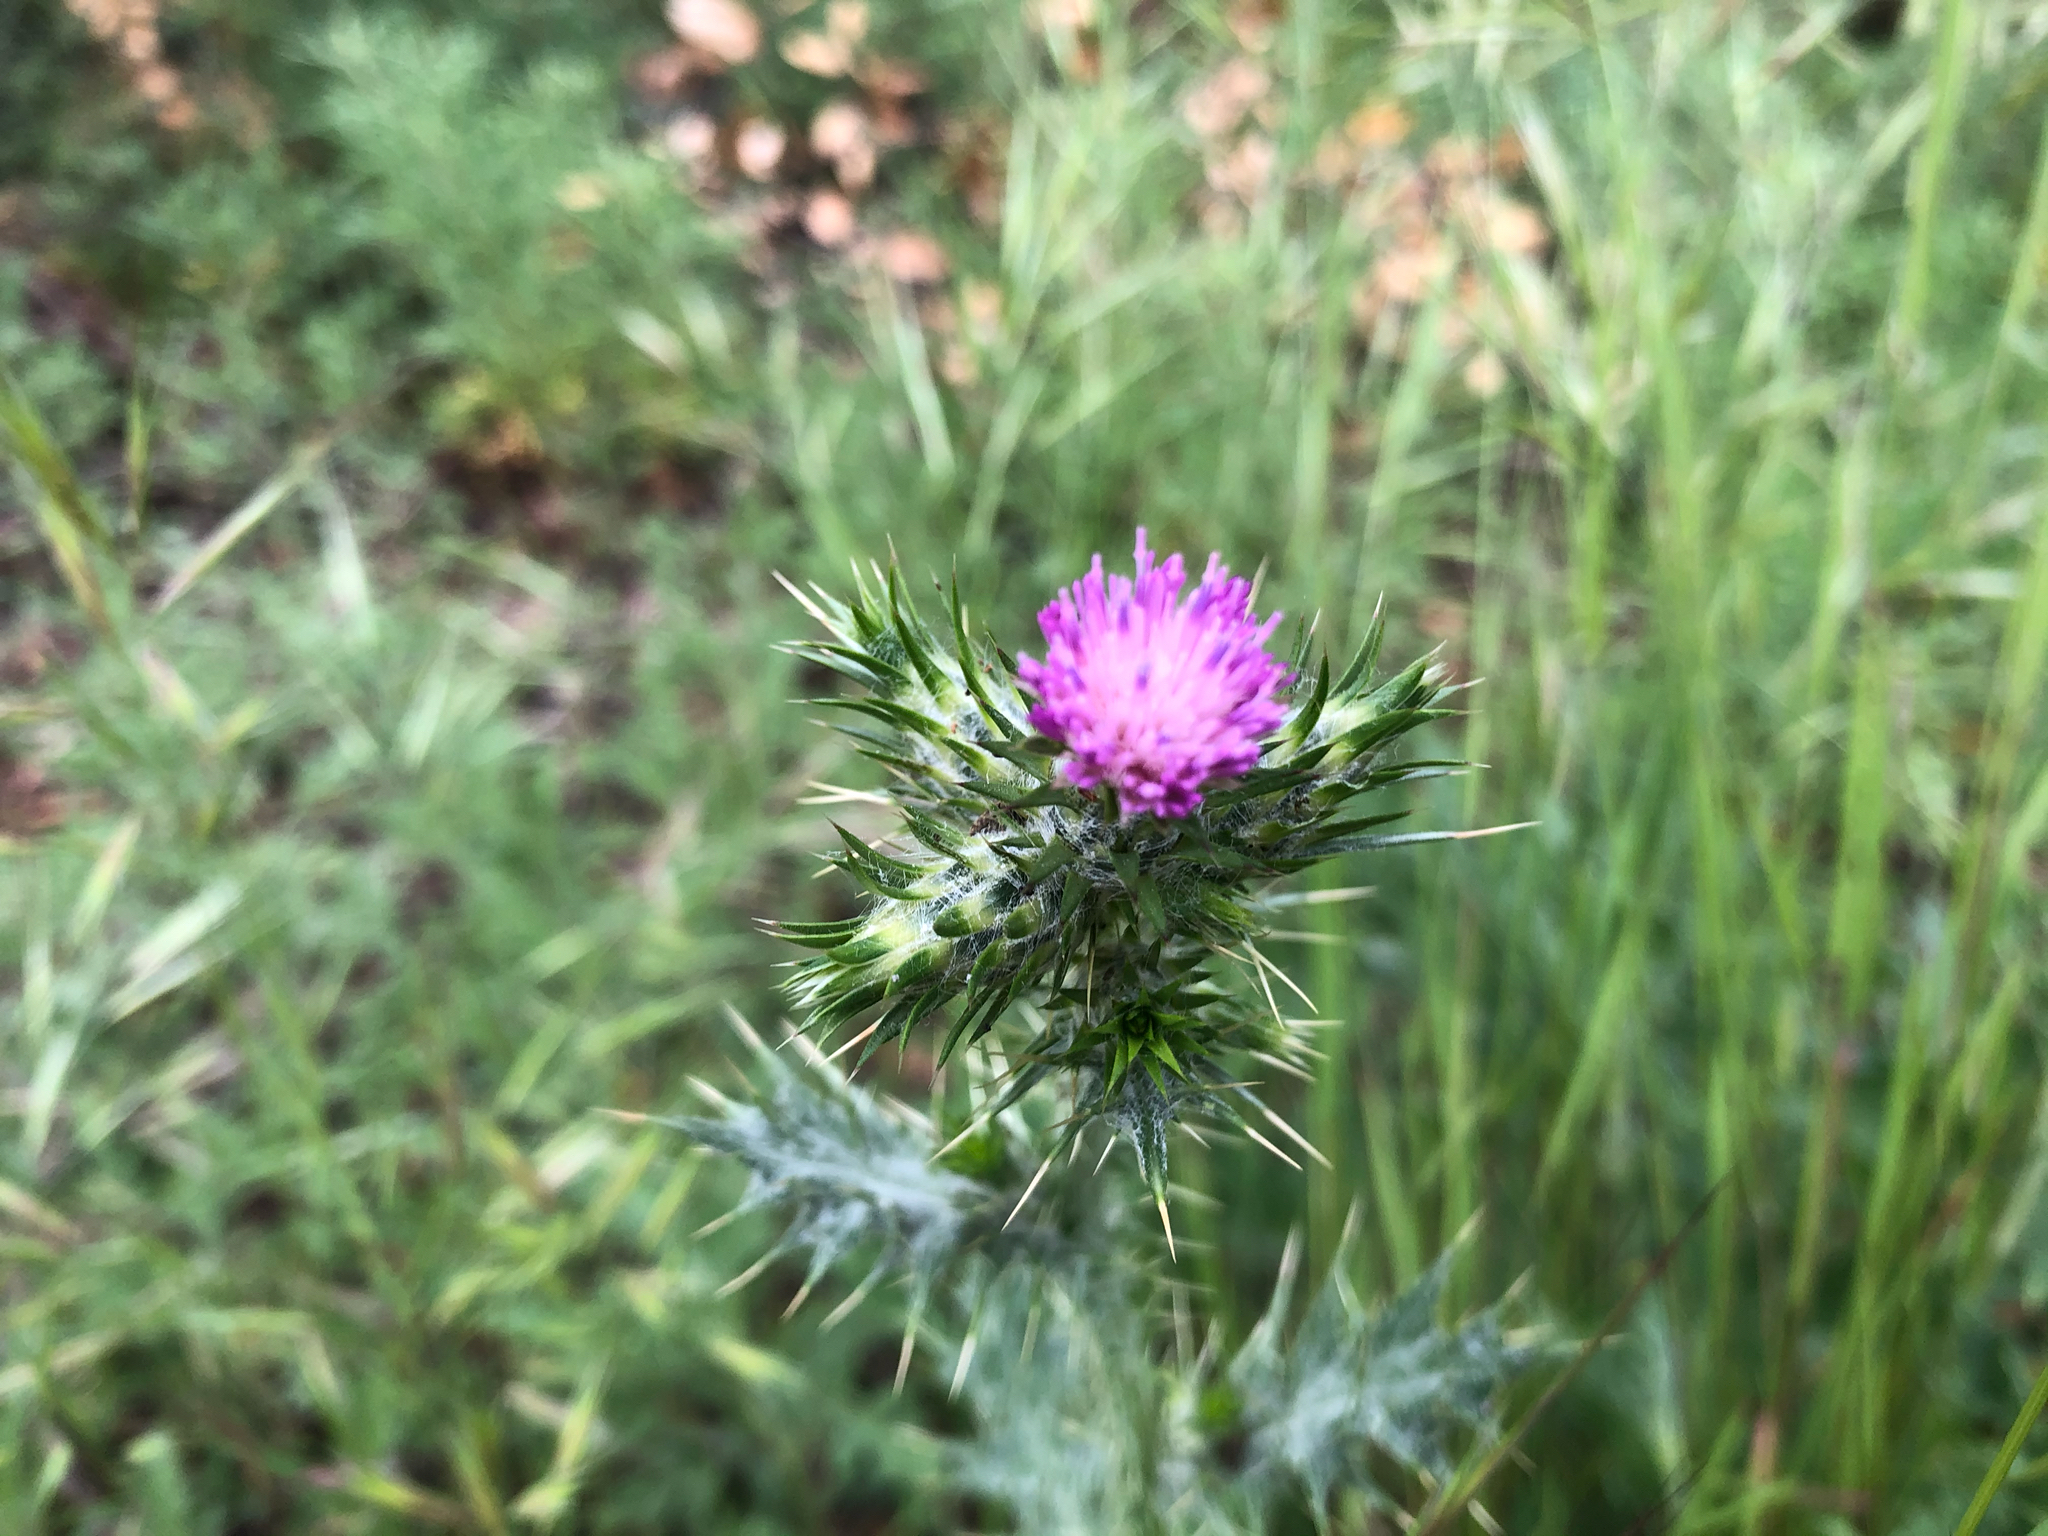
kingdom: Plantae
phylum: Tracheophyta
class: Magnoliopsida
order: Asterales
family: Asteraceae
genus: Carduus
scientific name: Carduus pycnocephalus
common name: Plymouth thistle
